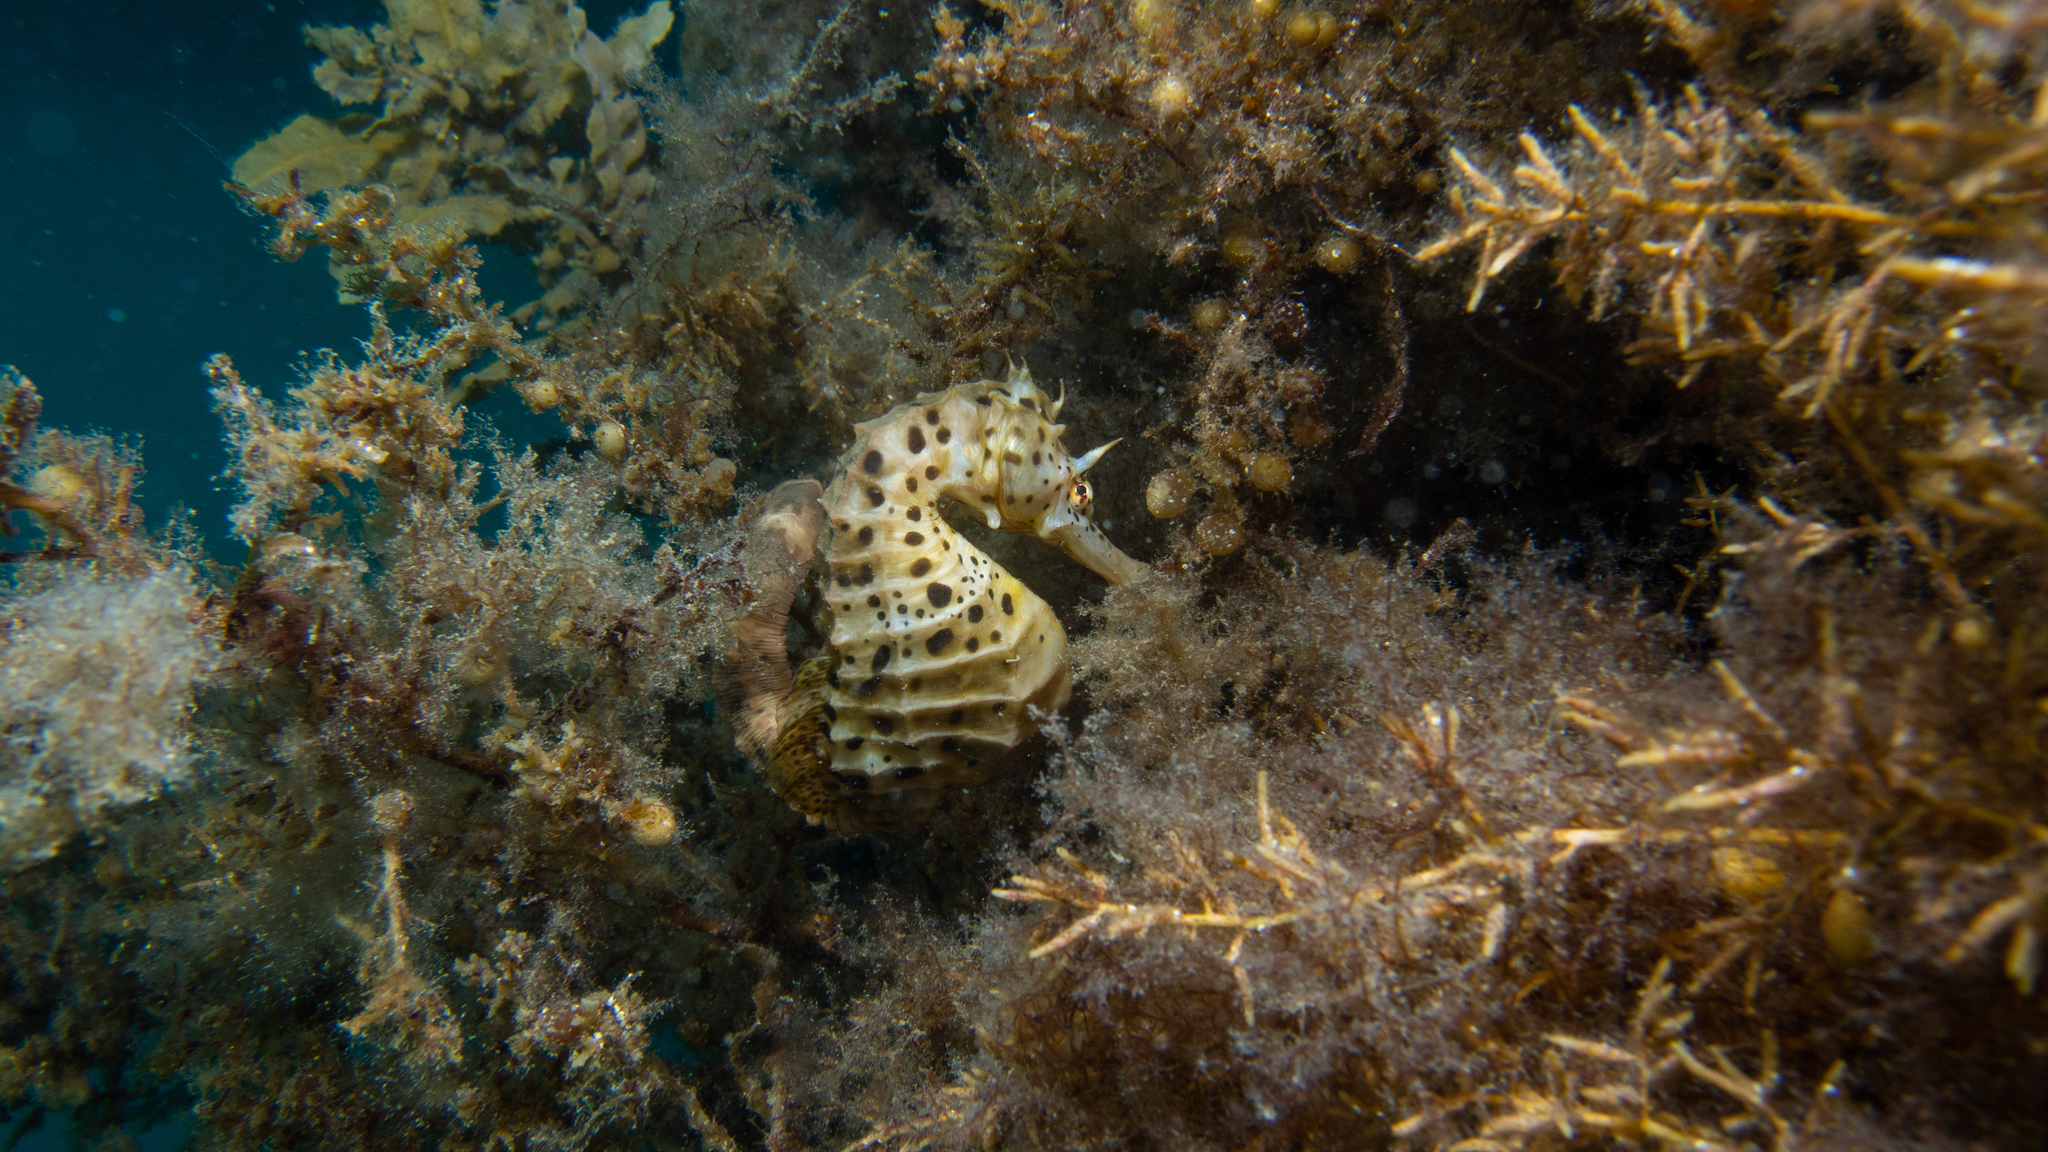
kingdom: Animalia
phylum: Chordata
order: Syngnathiformes
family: Syngnathidae
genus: Hippocampus
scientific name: Hippocampus abdominalis
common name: Big-belly seahorse
